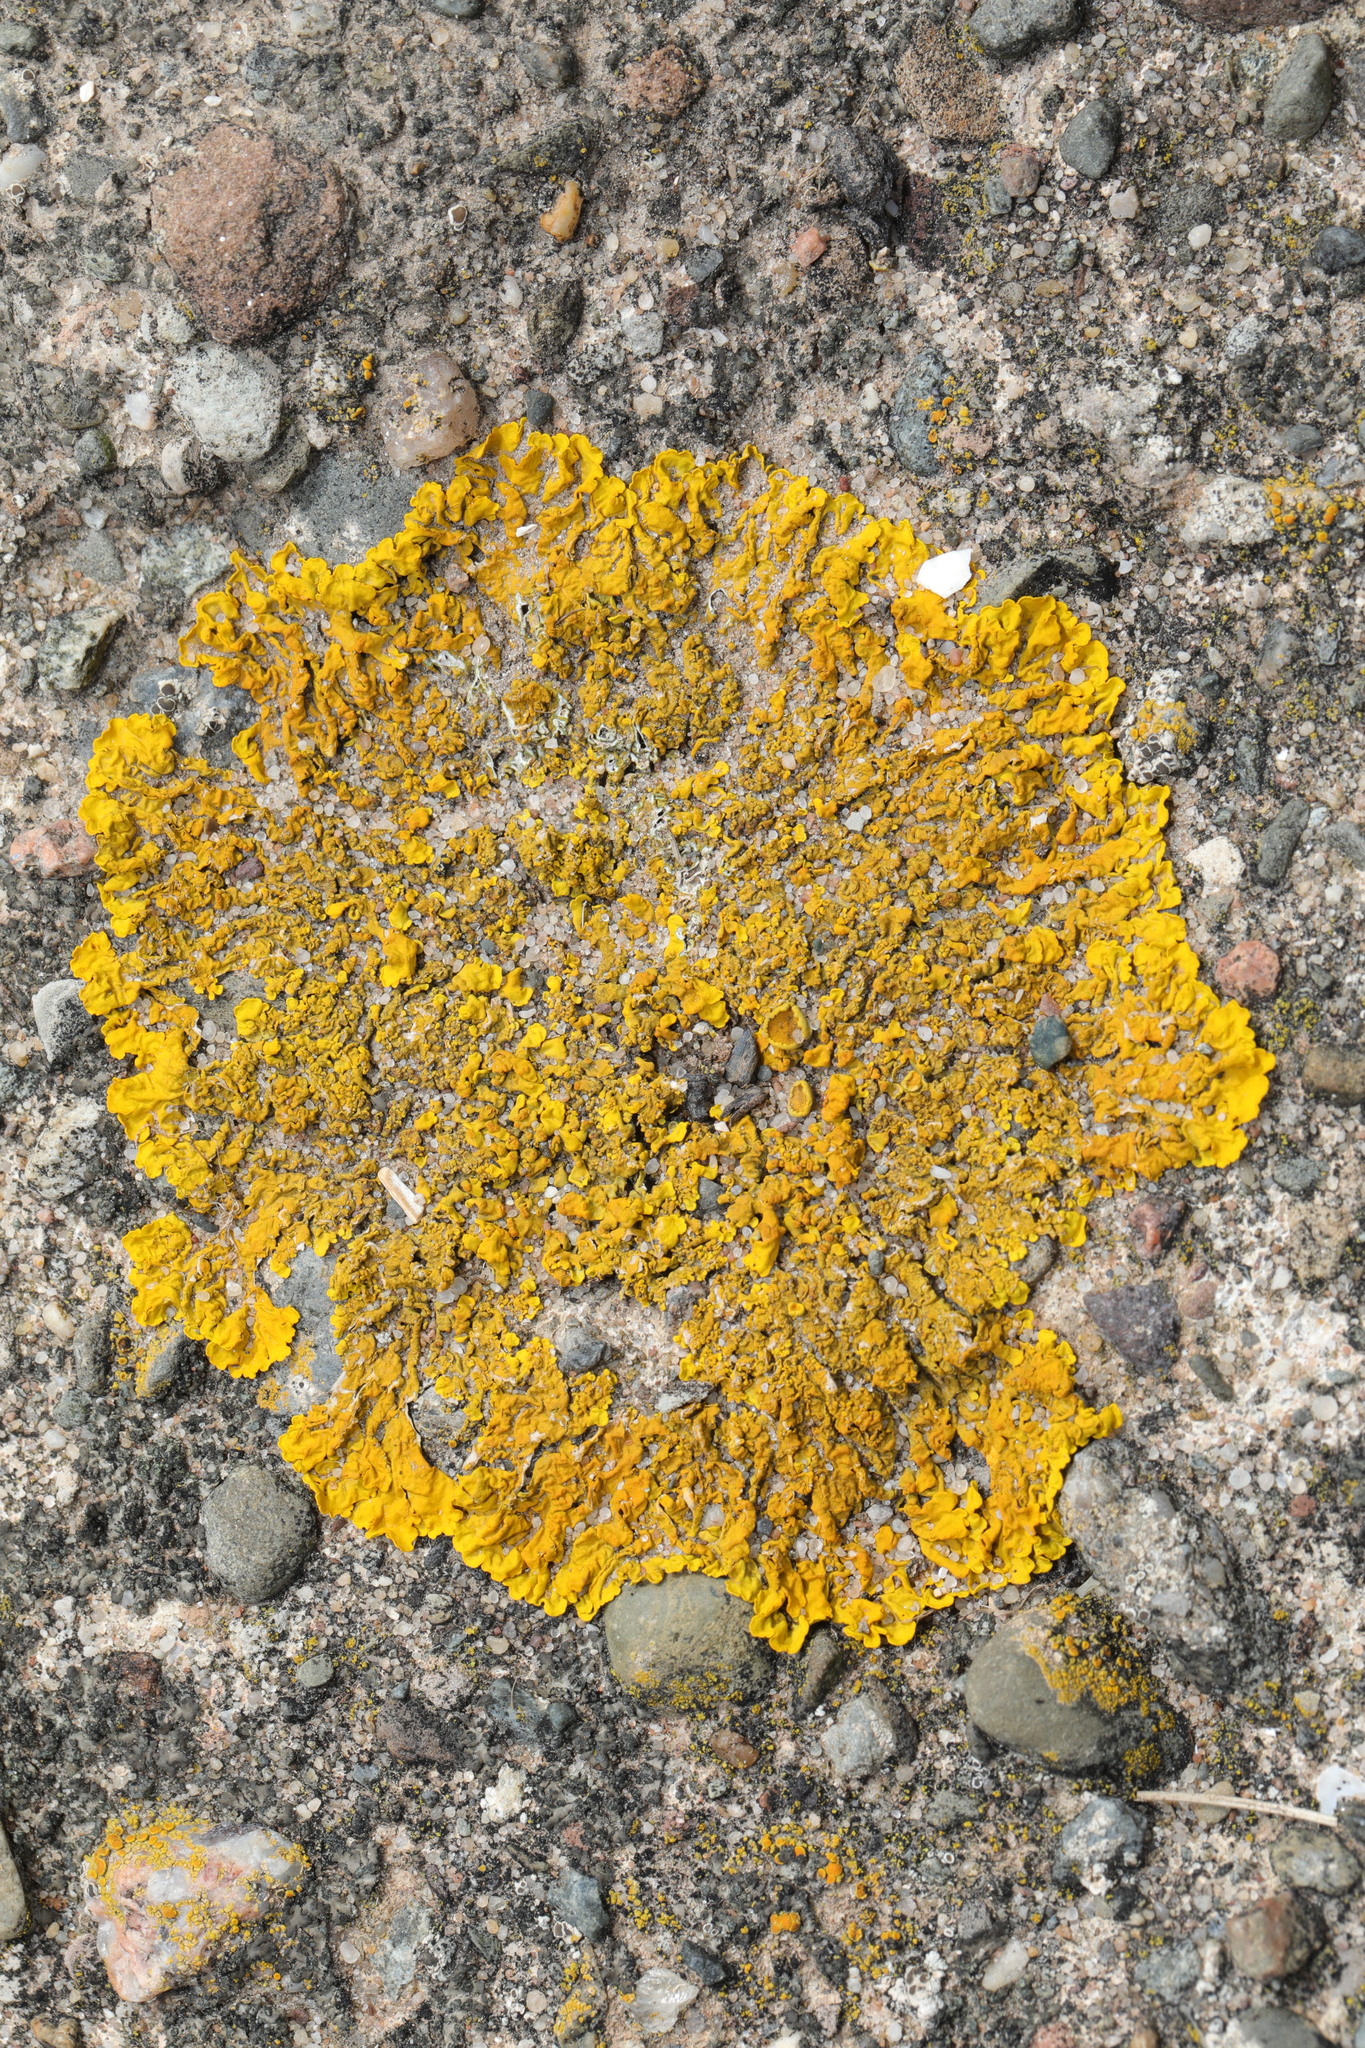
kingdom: Fungi
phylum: Ascomycota
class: Lecanoromycetes
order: Teloschistales
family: Teloschistaceae
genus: Xanthoria
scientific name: Xanthoria parietina
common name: Common orange lichen
